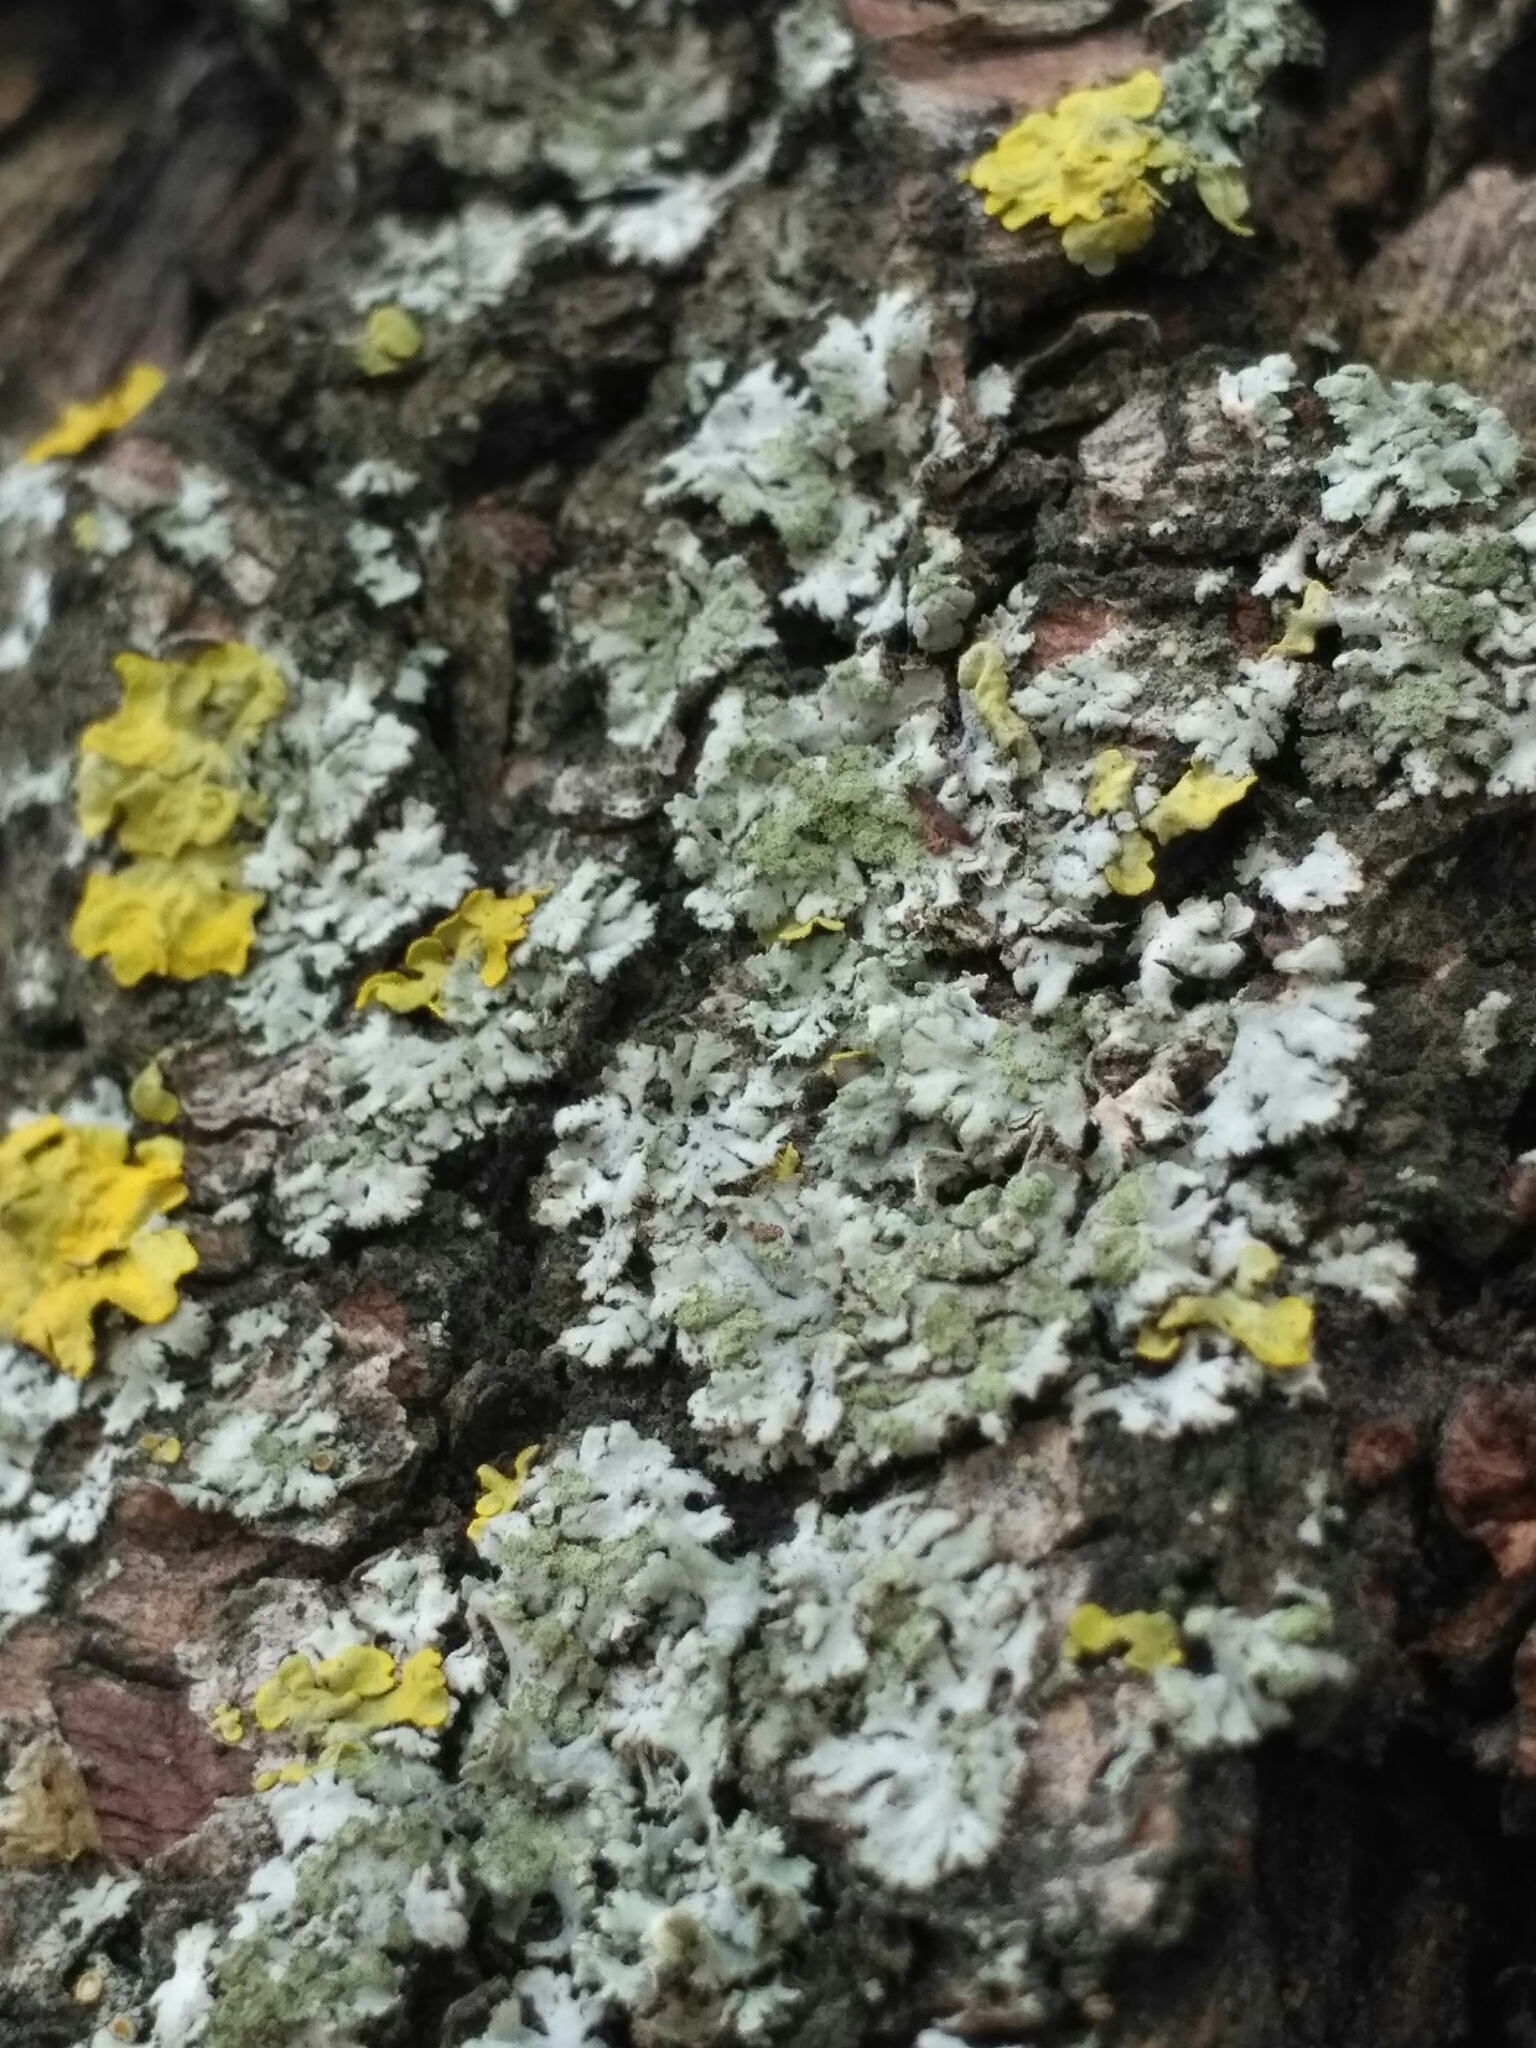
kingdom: Fungi
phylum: Ascomycota
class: Lecanoromycetes
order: Caliciales
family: Physciaceae
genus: Phaeophyscia
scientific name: Phaeophyscia orbicularis
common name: Mealy shadow lichen
